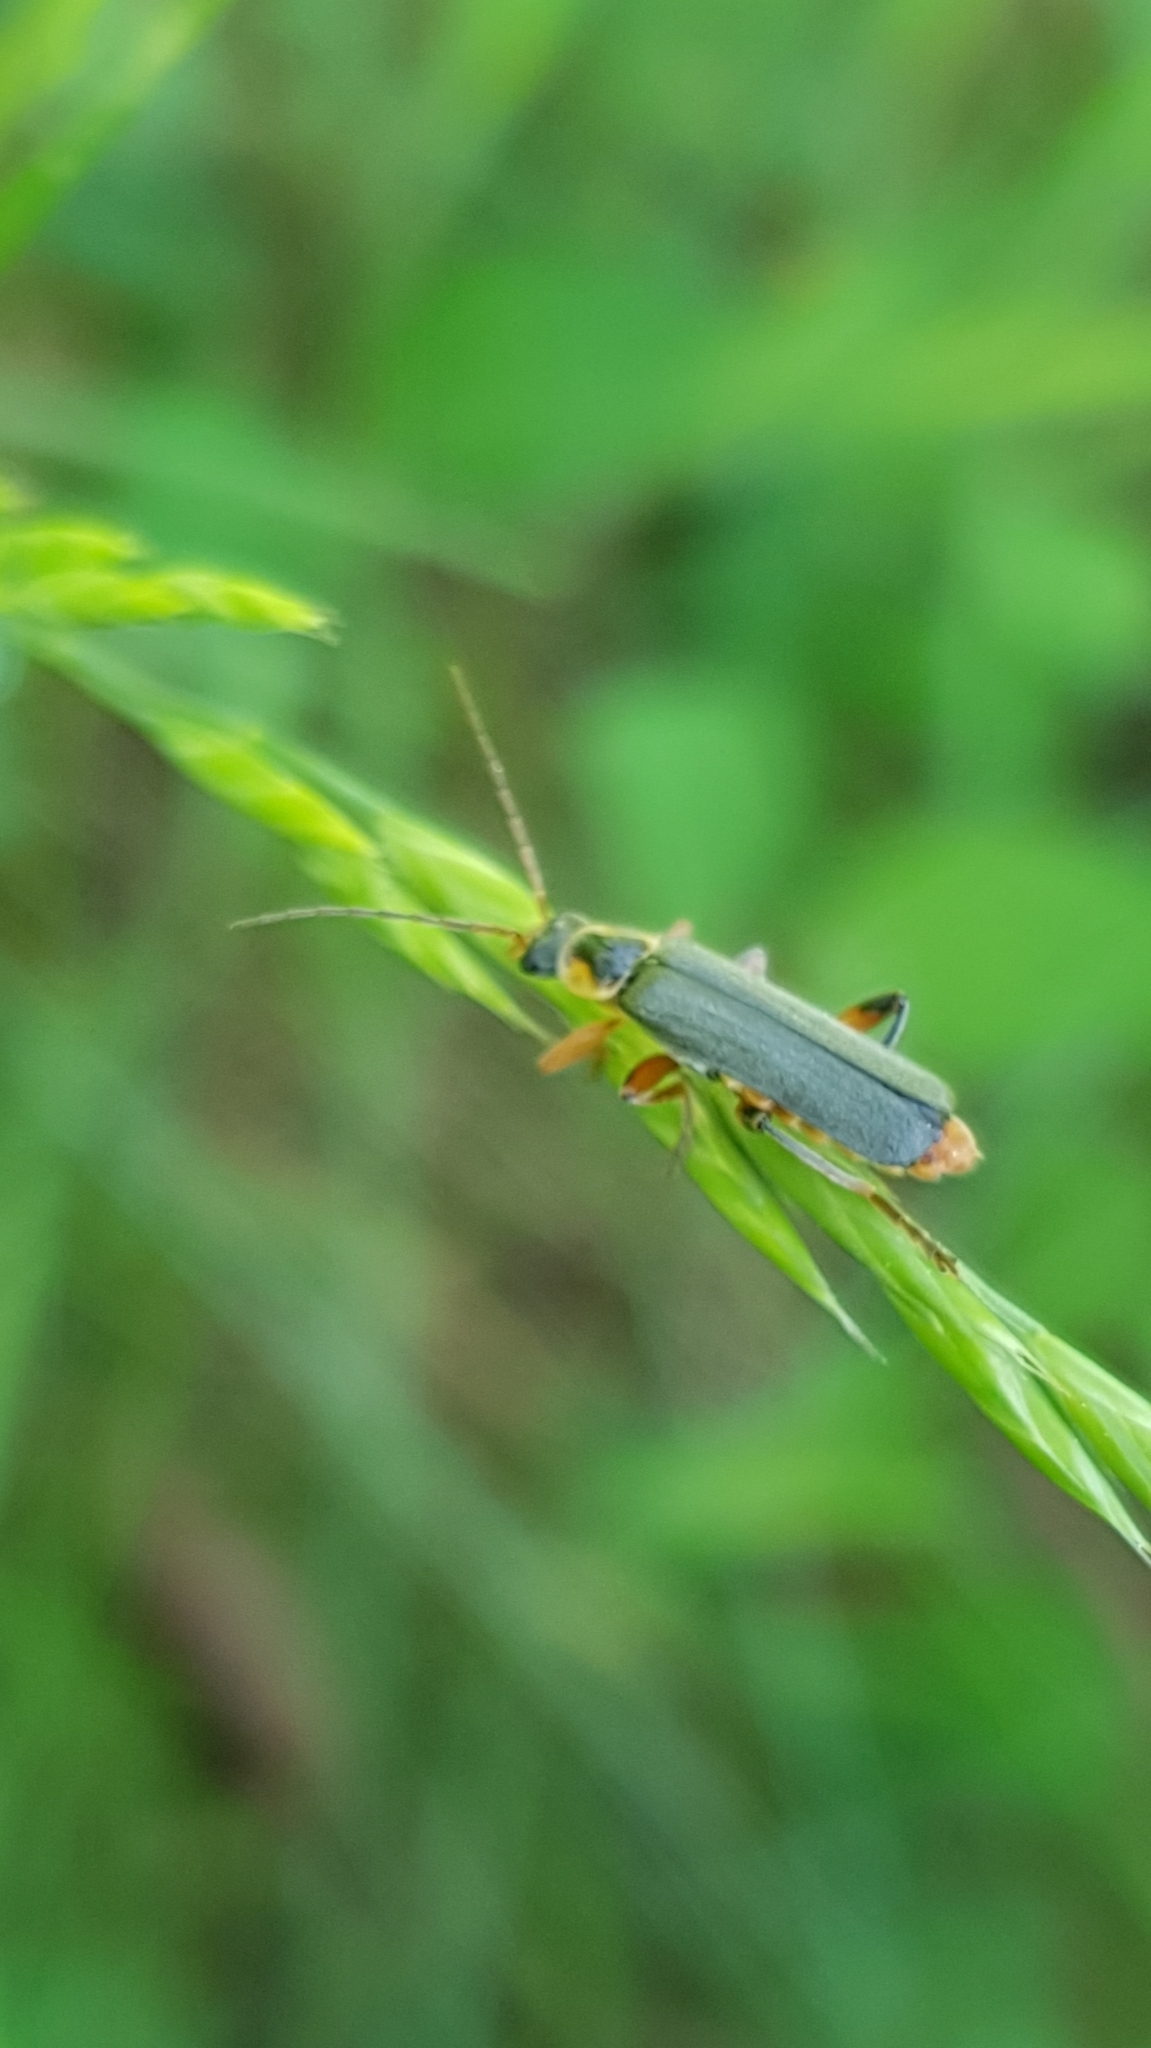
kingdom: Animalia
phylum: Arthropoda
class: Insecta
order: Coleoptera
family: Cantharidae
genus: Cantharis
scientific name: Cantharis nigricans
